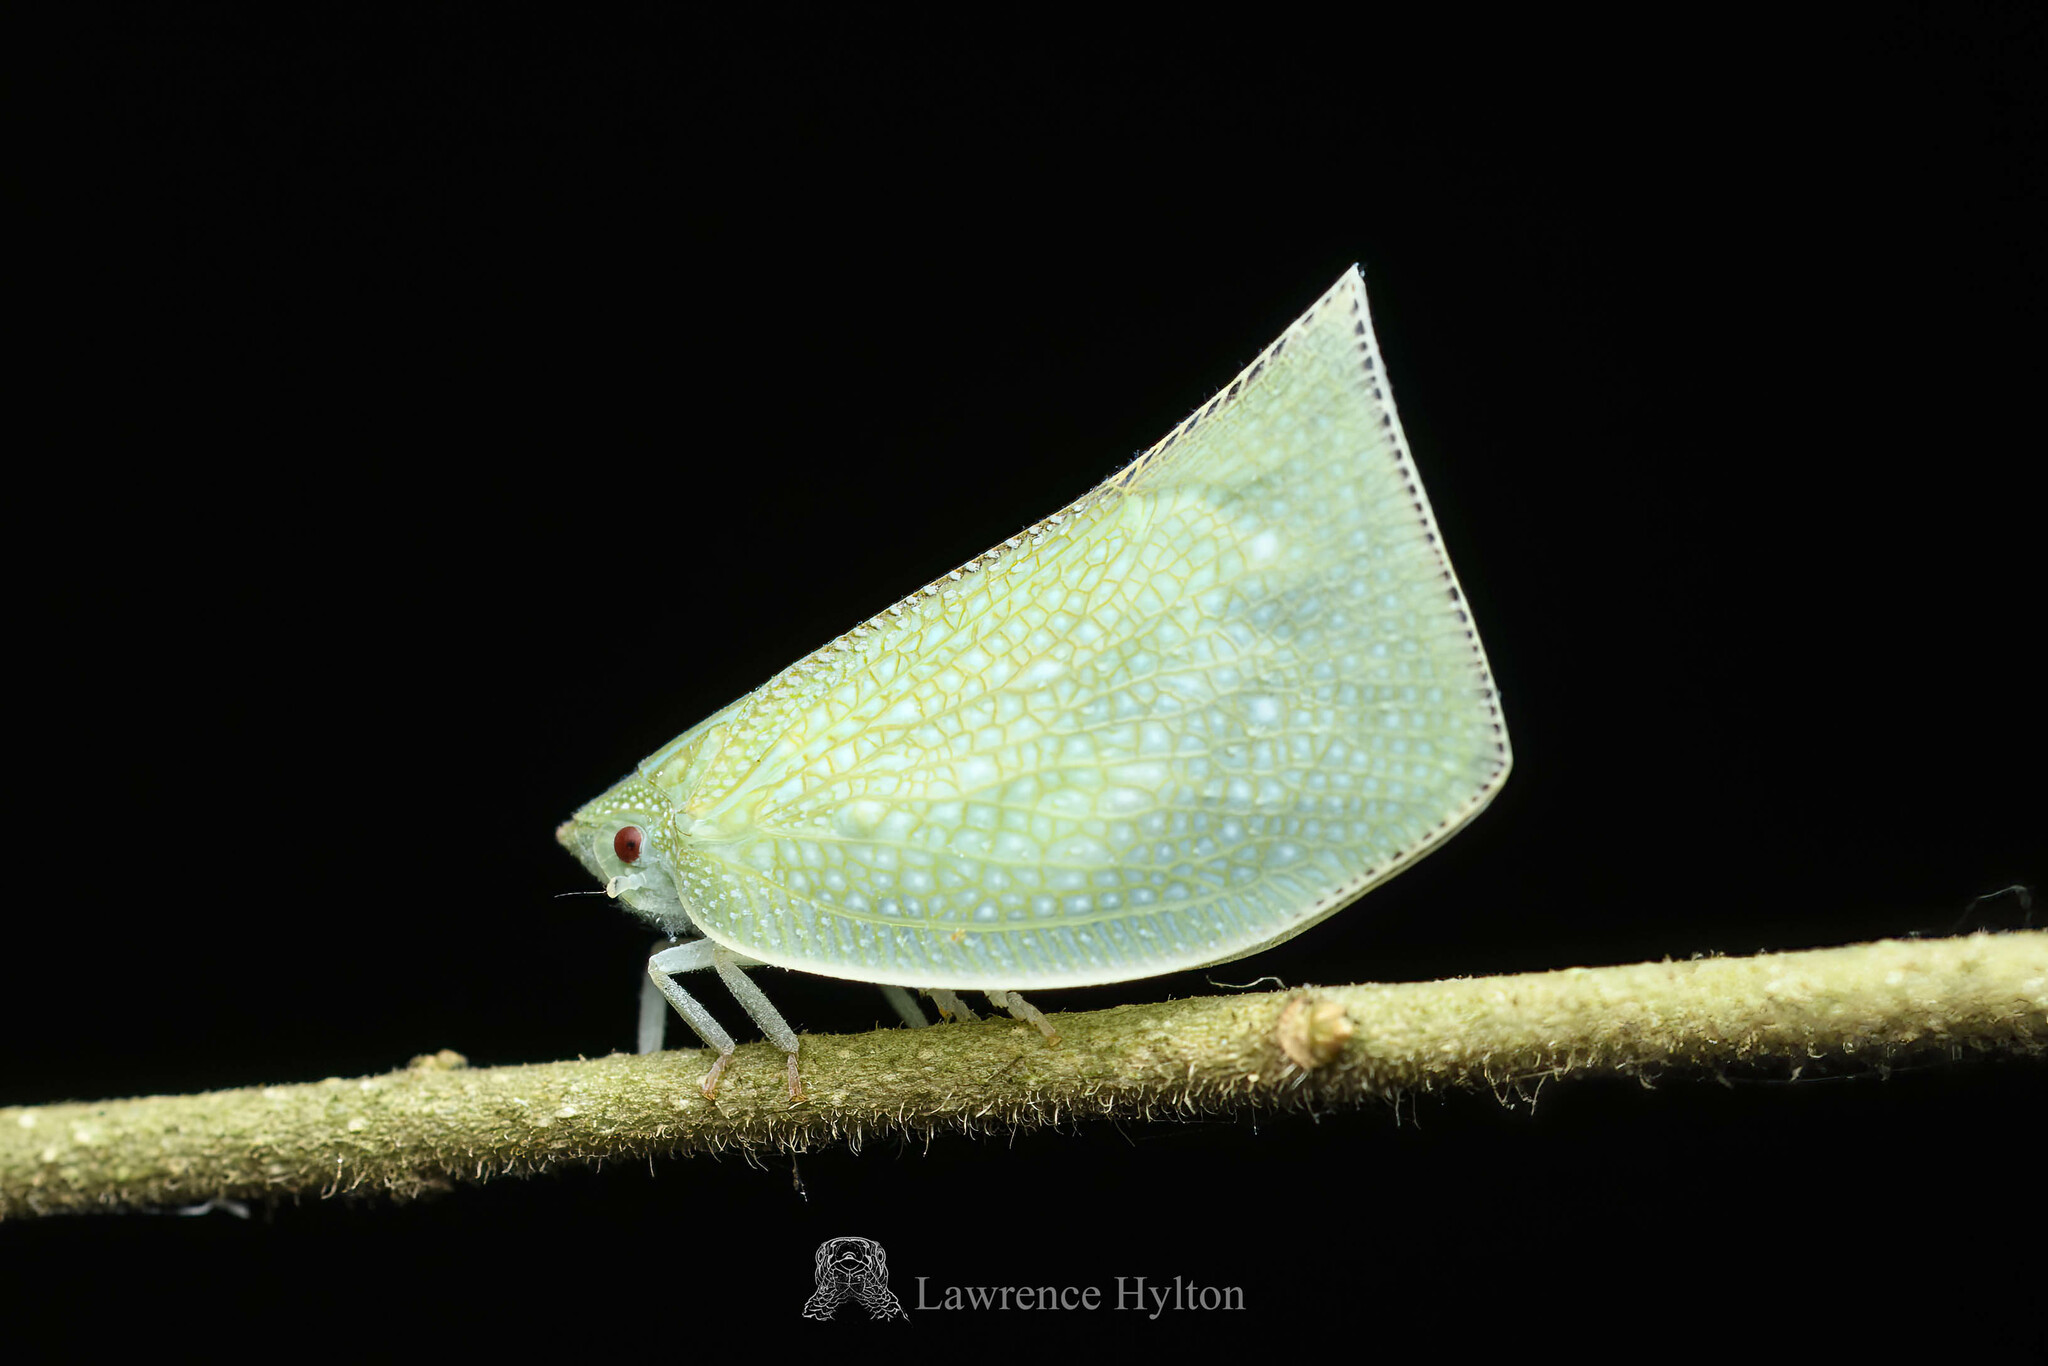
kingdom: Animalia
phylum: Arthropoda
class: Insecta
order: Hemiptera
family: Flatidae
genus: Cromna
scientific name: Cromna sinensis
